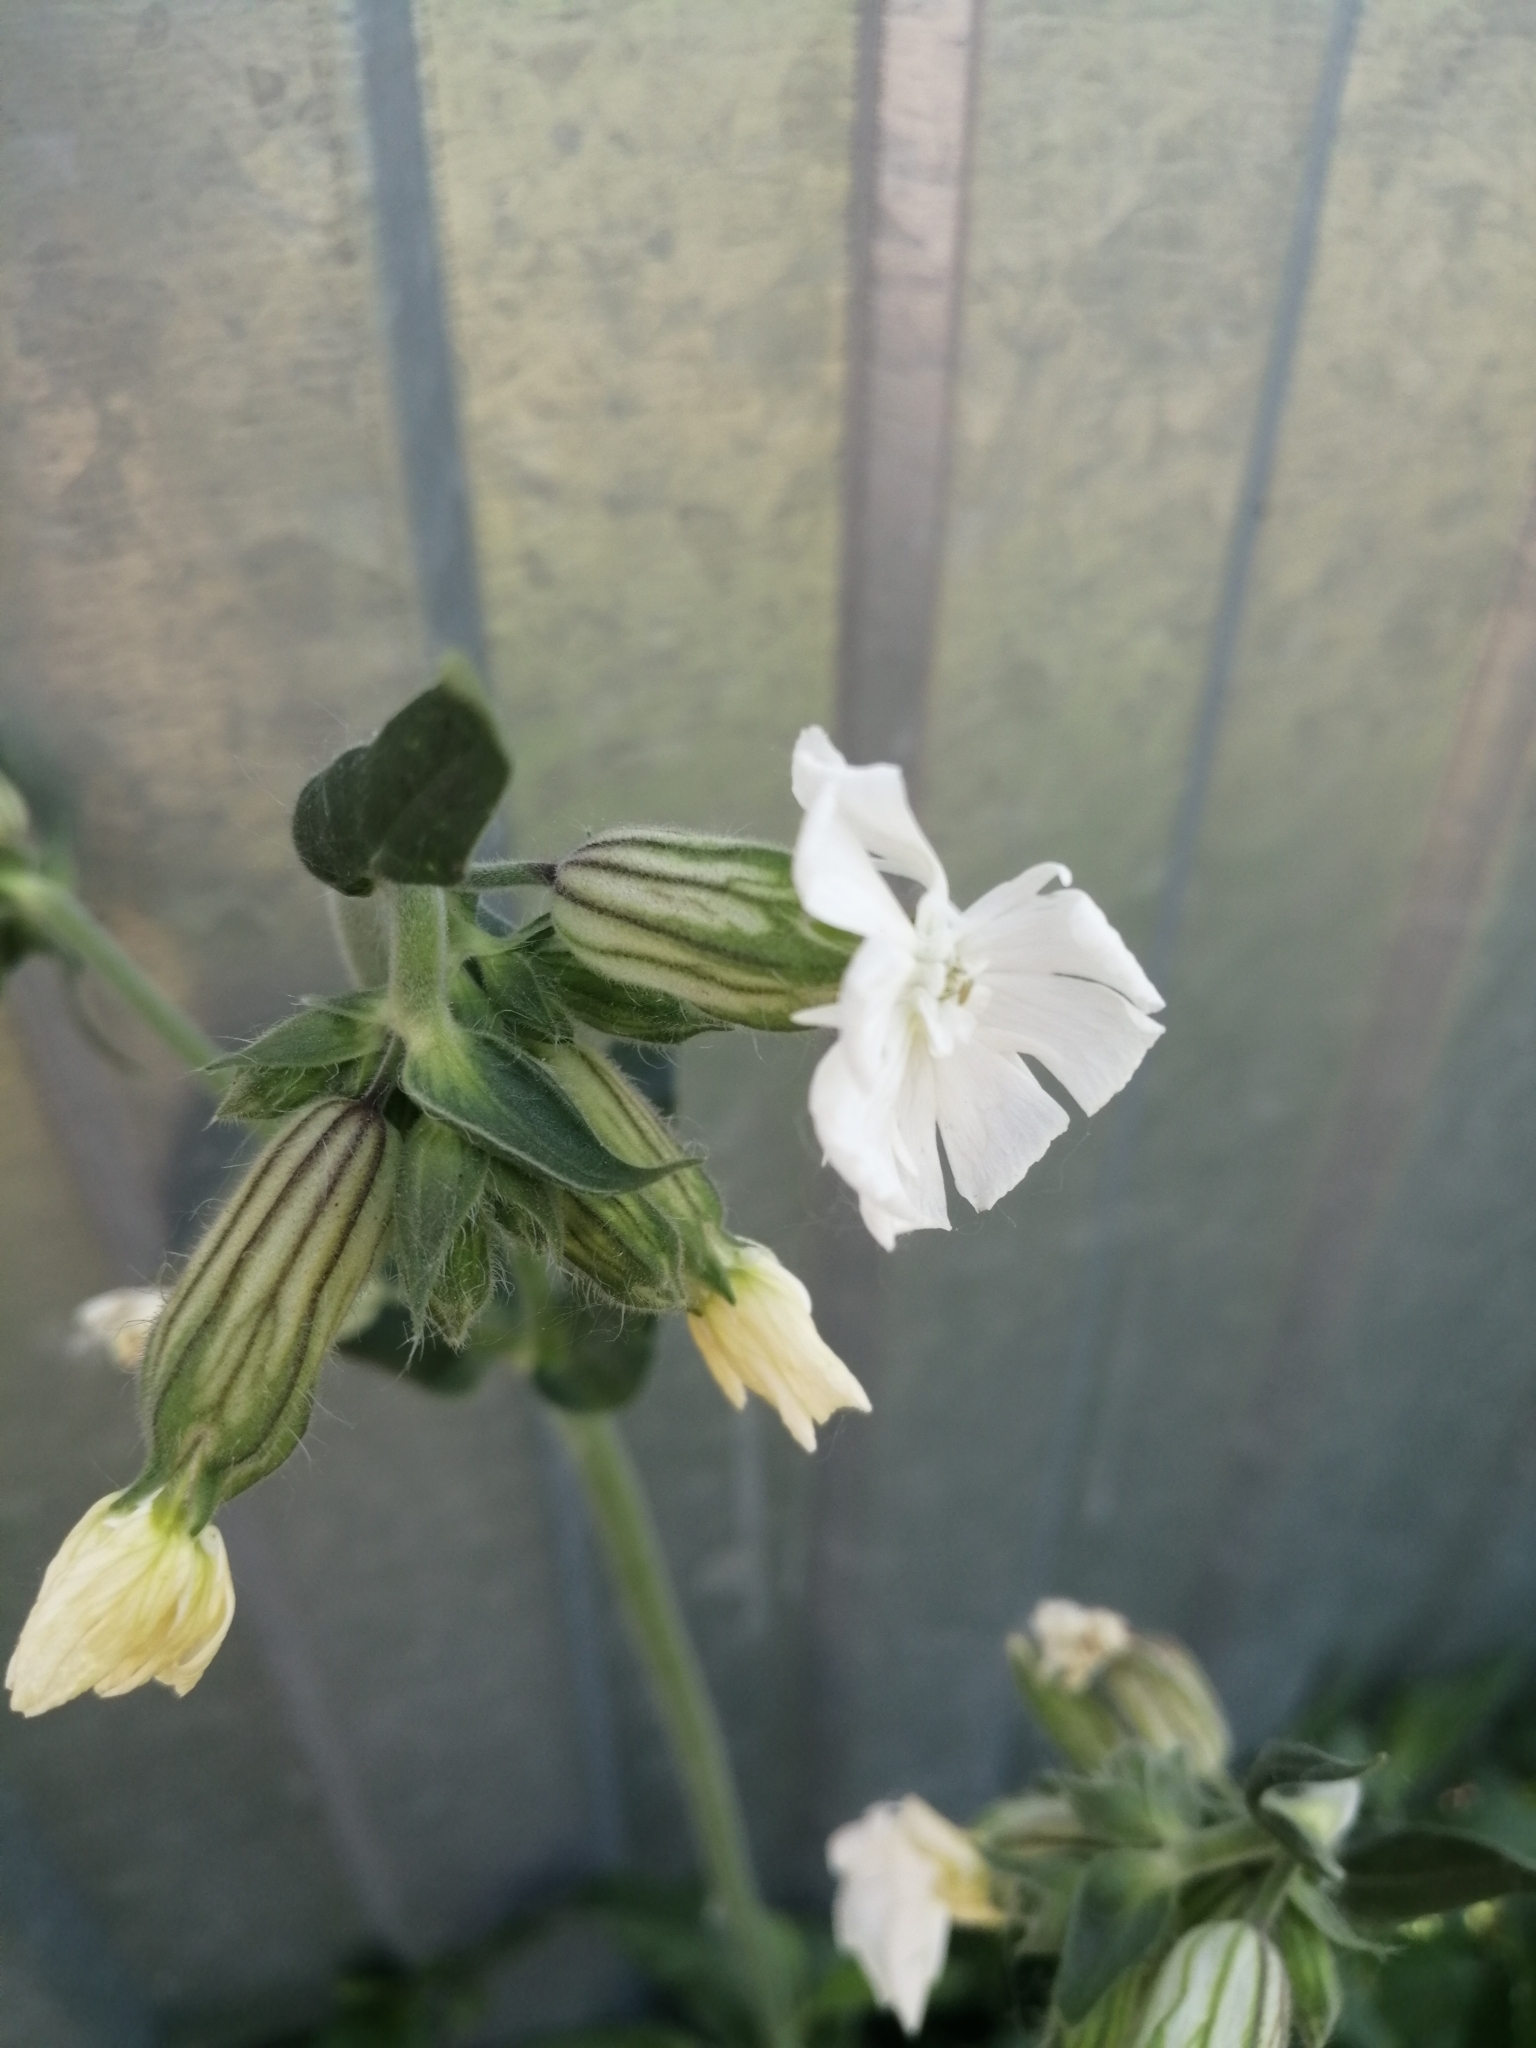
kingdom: Plantae
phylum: Tracheophyta
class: Magnoliopsida
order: Caryophyllales
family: Caryophyllaceae
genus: Silene
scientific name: Silene latifolia
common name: White campion
